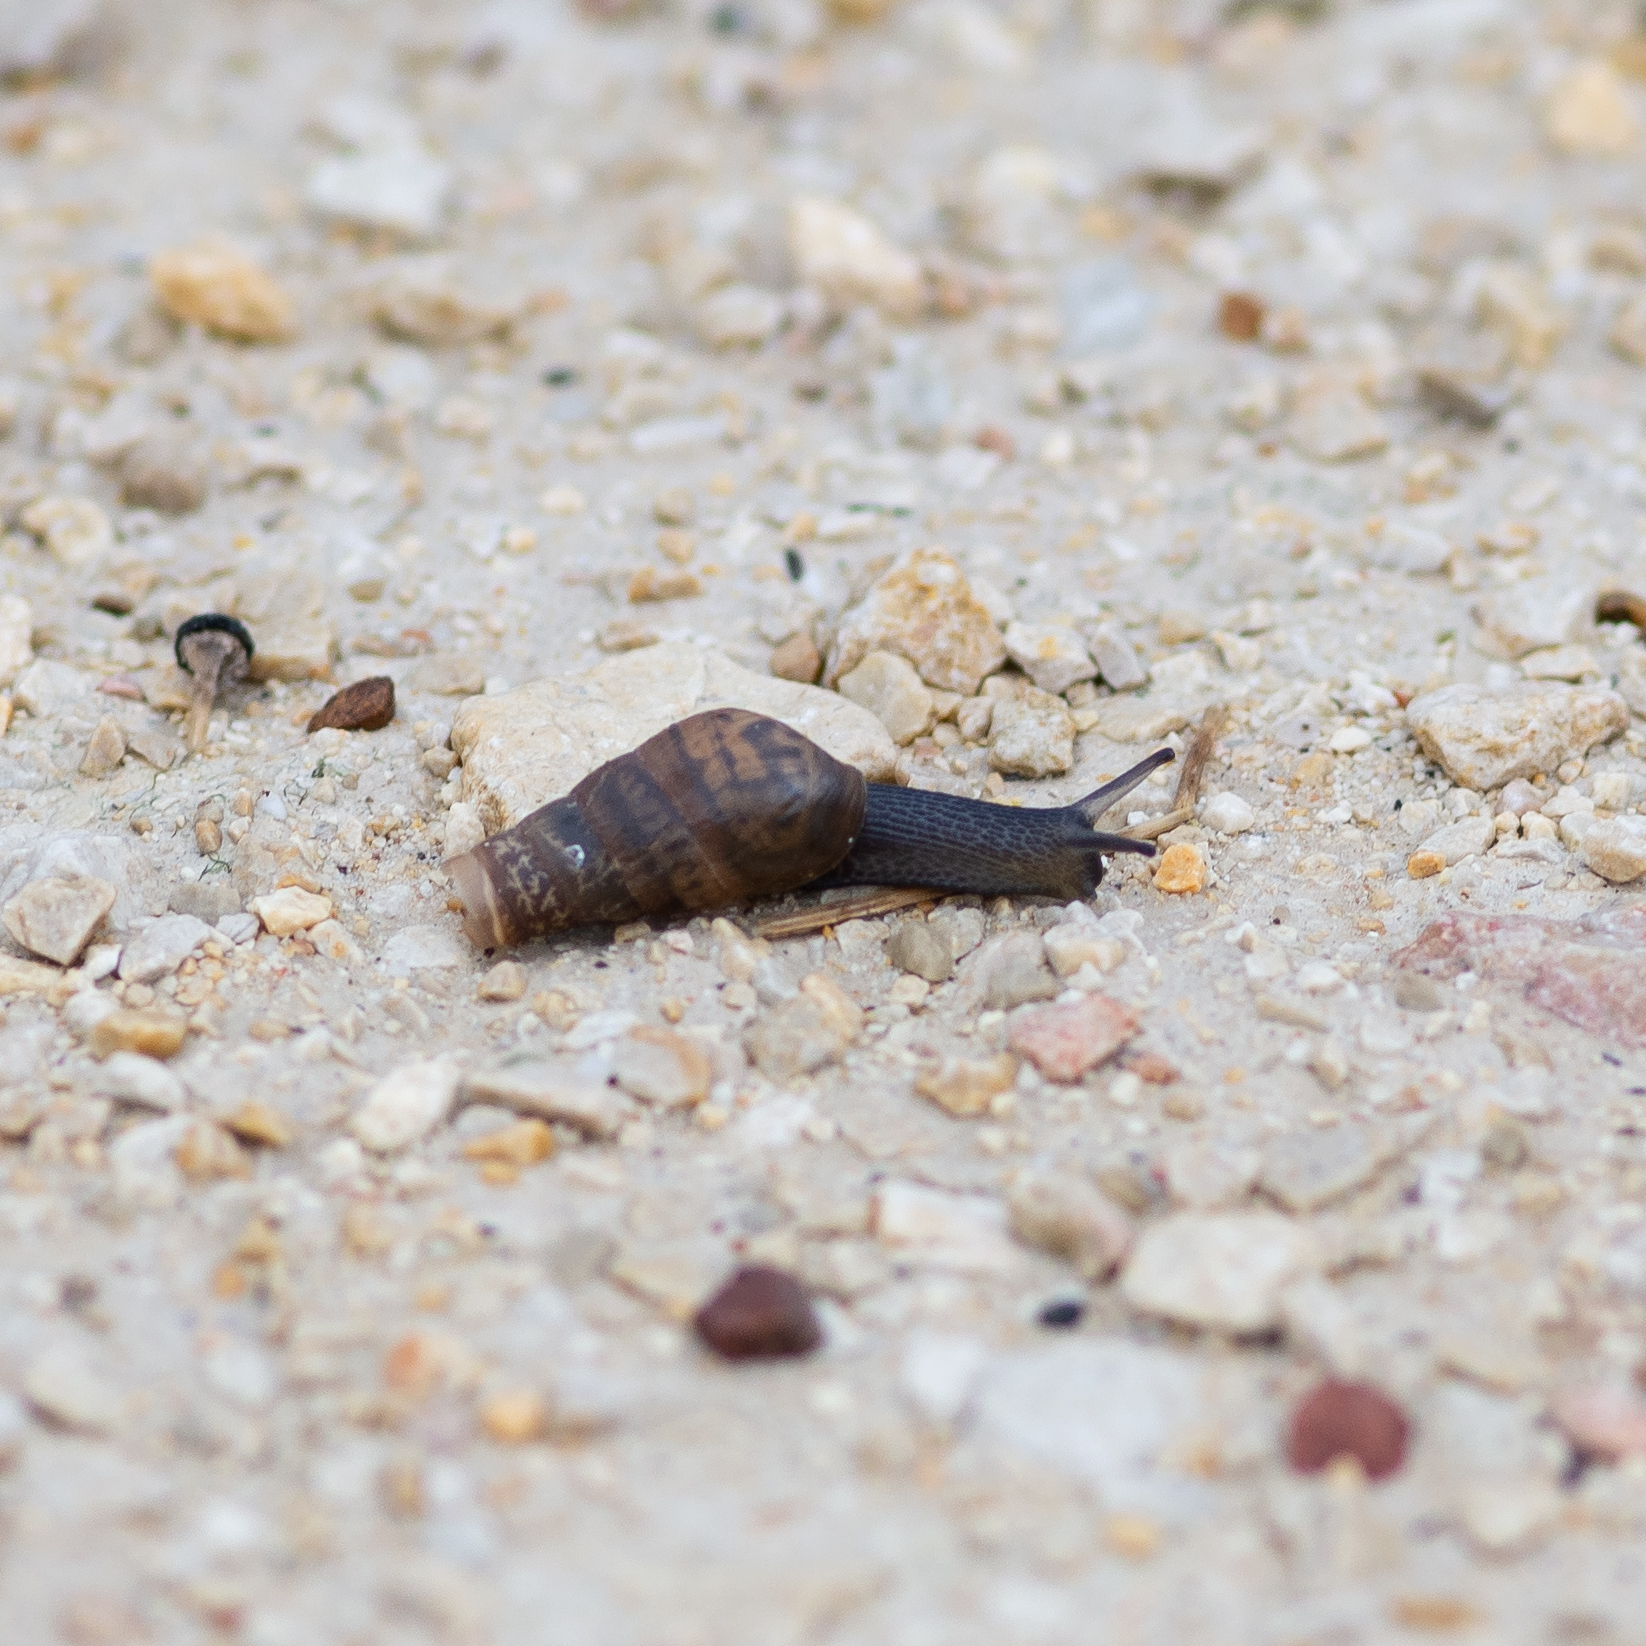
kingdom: Animalia
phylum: Mollusca
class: Gastropoda
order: Stylommatophora
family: Achatinidae
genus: Rumina
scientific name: Rumina decollata
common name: Decollate snail
